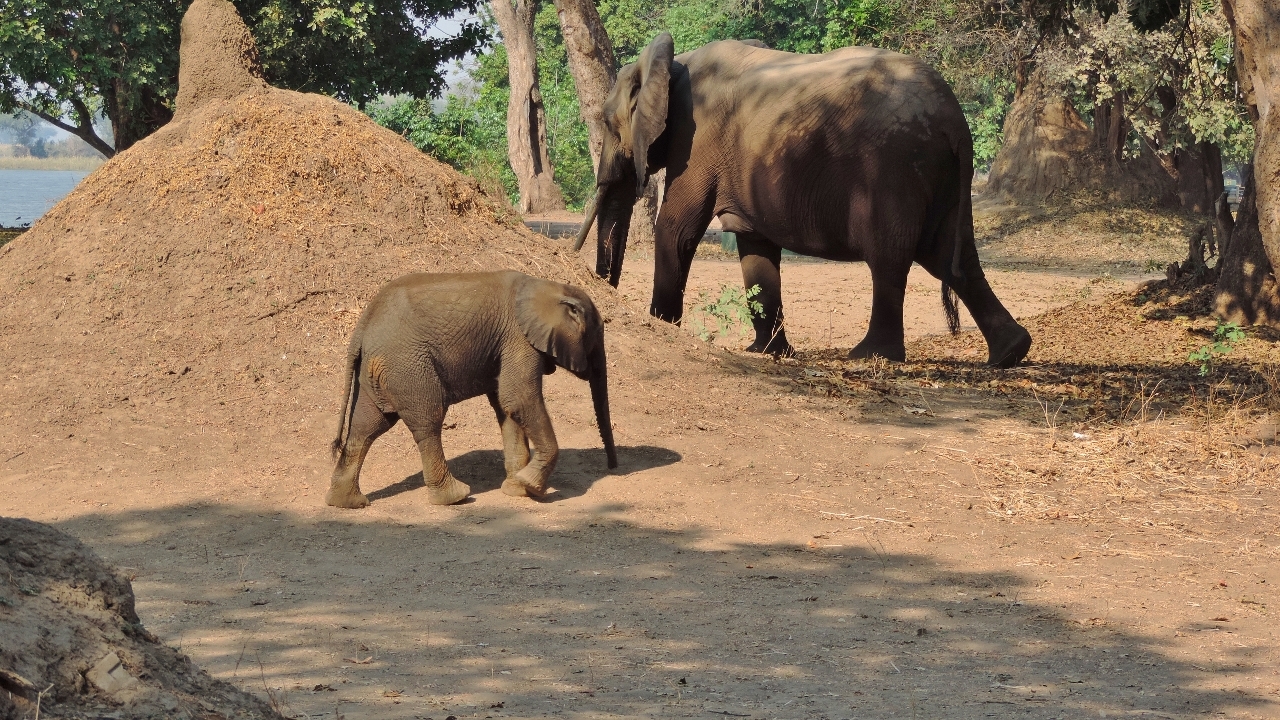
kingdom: Animalia
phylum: Chordata
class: Mammalia
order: Proboscidea
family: Elephantidae
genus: Loxodonta
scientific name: Loxodonta africana
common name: African elephant
